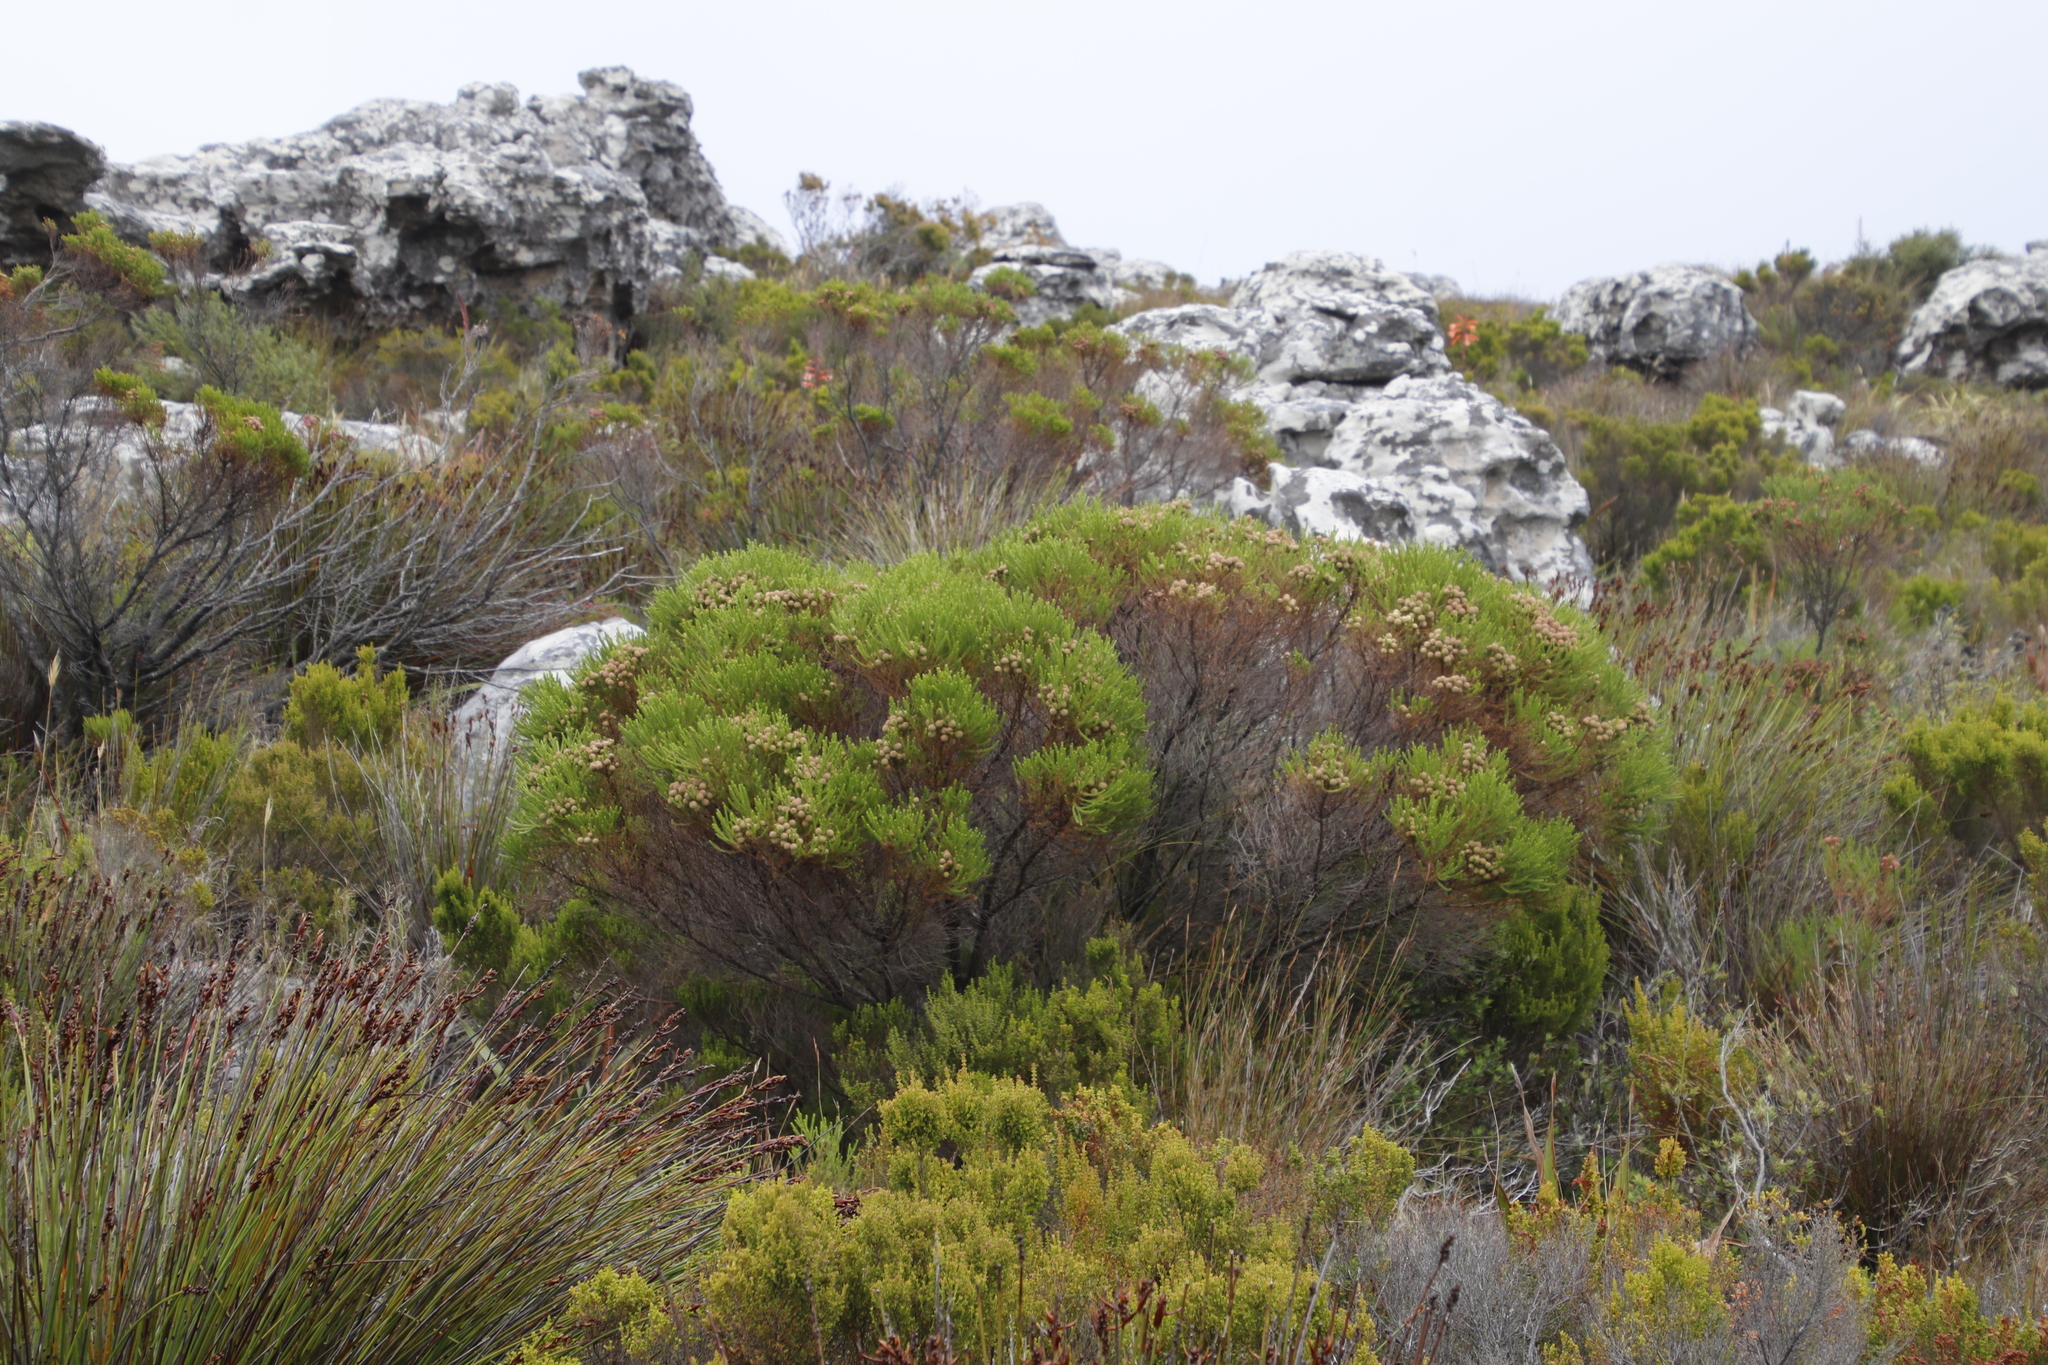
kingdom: Plantae
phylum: Tracheophyta
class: Magnoliopsida
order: Bruniales
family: Bruniaceae
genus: Berzelia
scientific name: Berzelia lanuginosa
